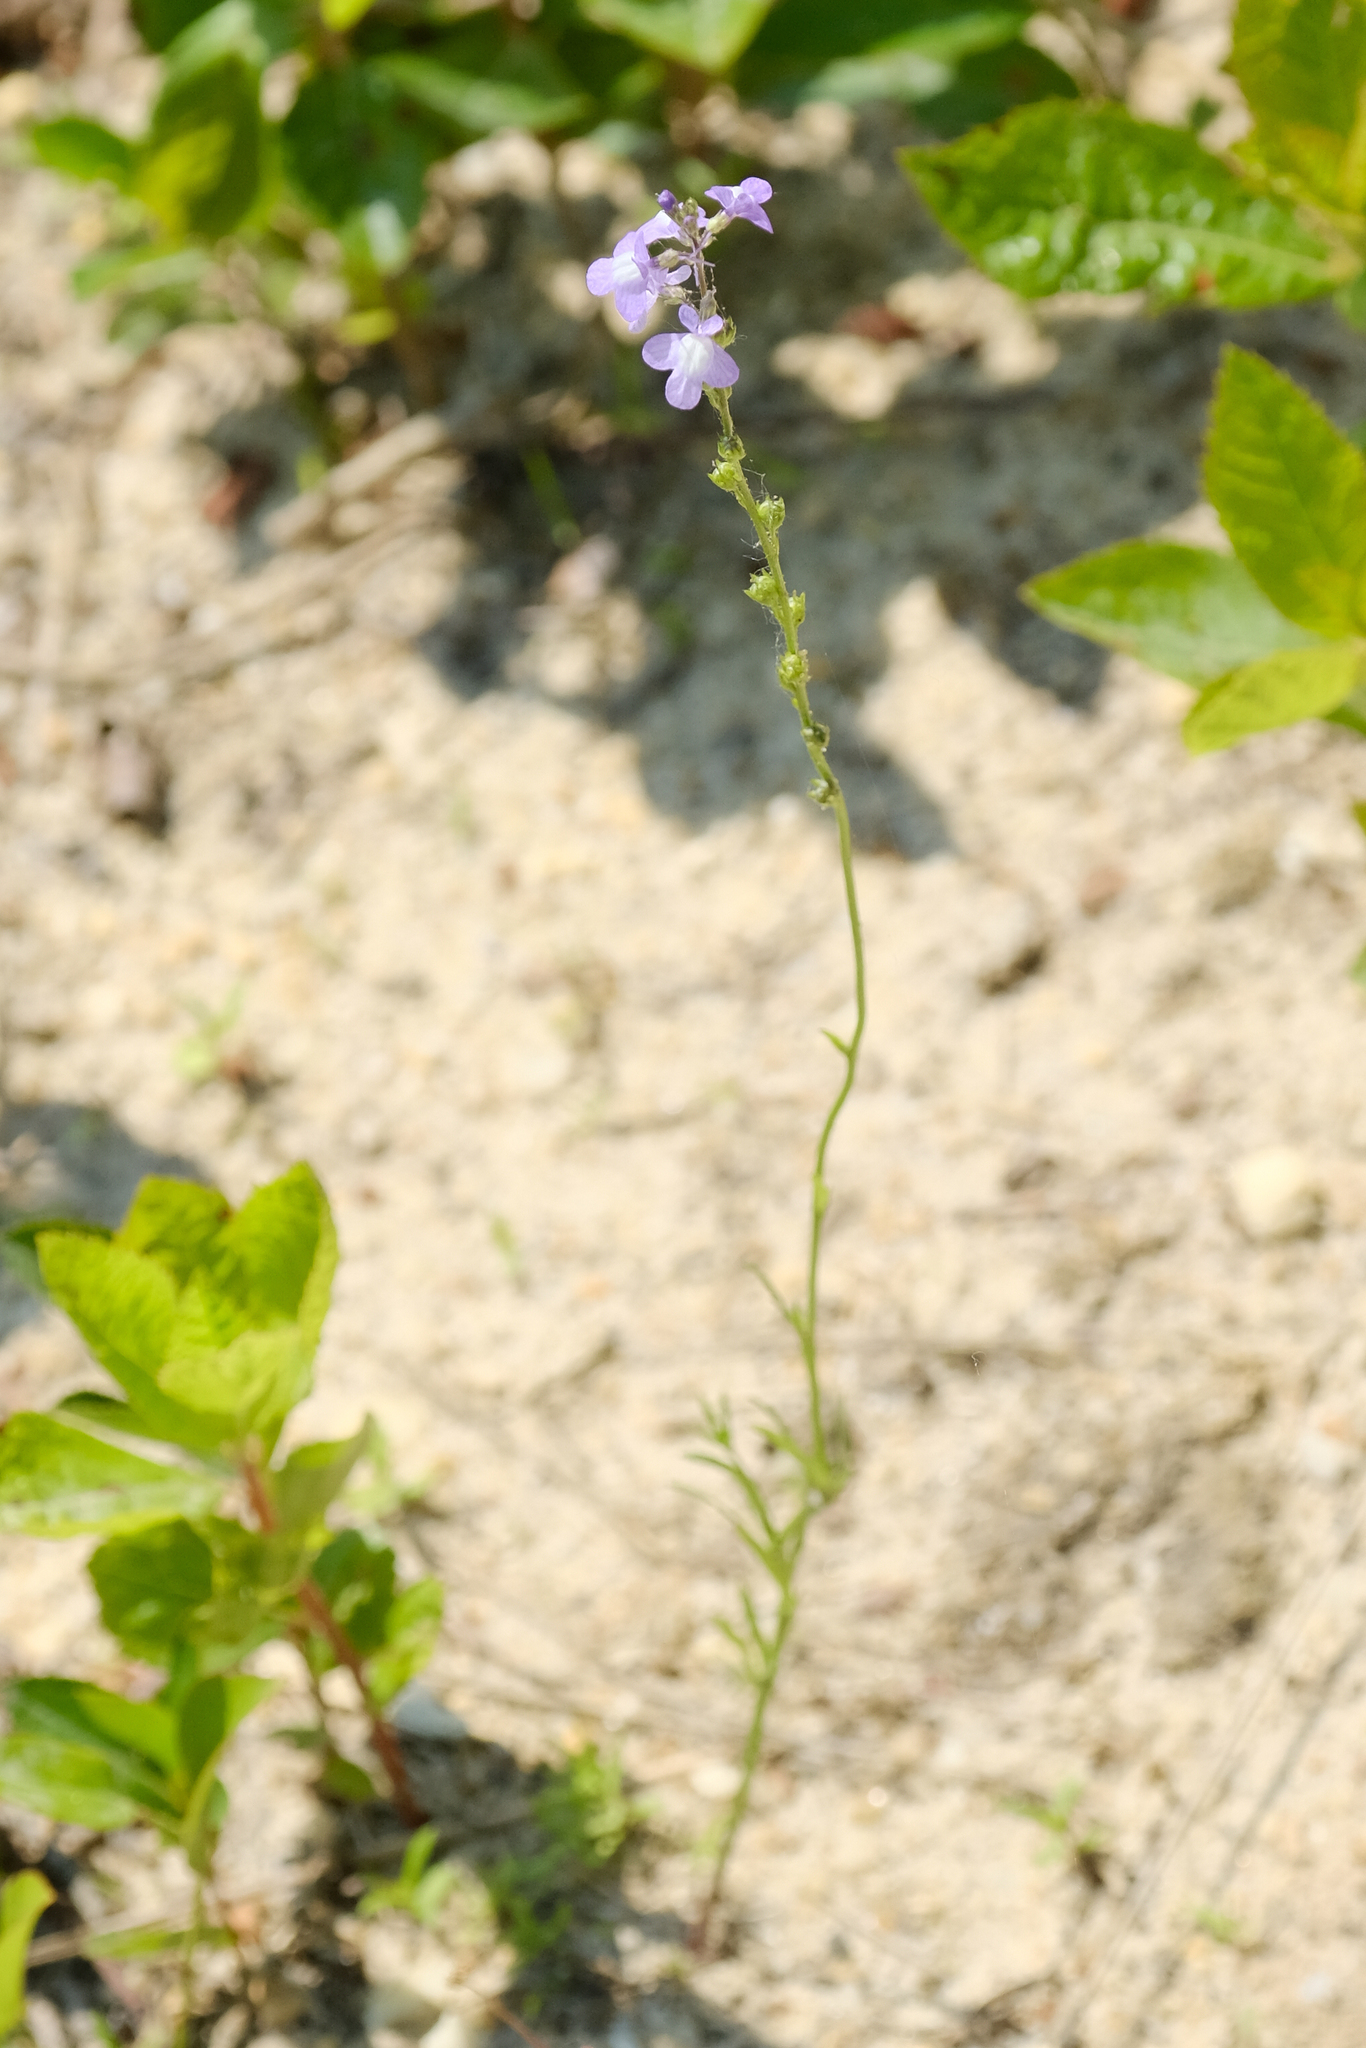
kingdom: Plantae
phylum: Tracheophyta
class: Magnoliopsida
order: Lamiales
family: Plantaginaceae
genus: Nuttallanthus
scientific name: Nuttallanthus canadensis
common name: Blue toadflax
